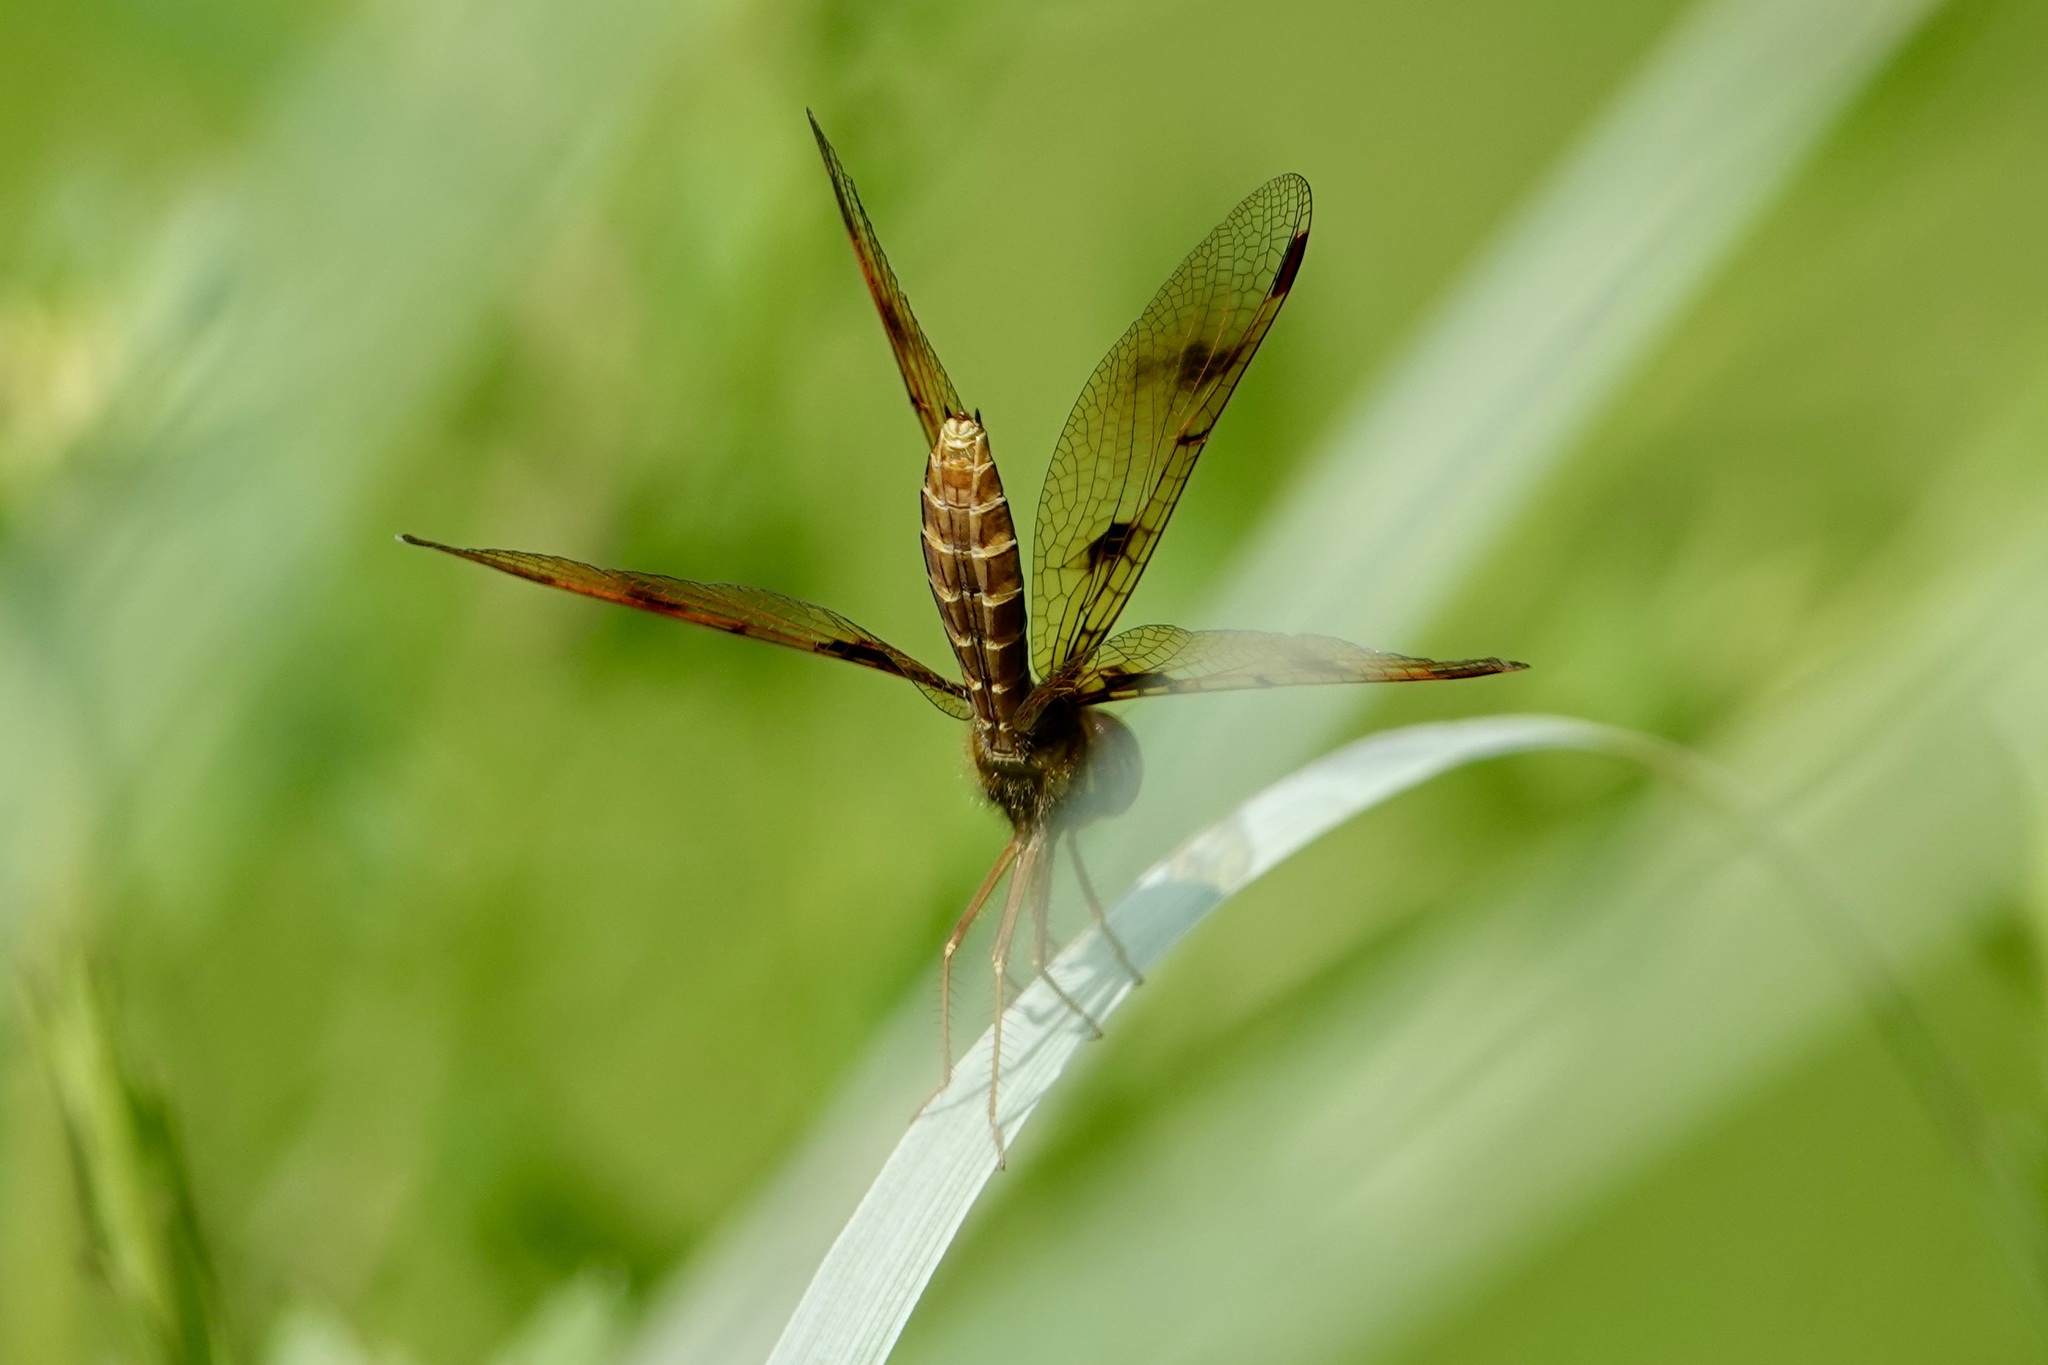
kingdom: Animalia
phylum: Arthropoda
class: Insecta
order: Odonata
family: Libellulidae
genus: Perithemis
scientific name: Perithemis tenera
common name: Eastern amberwing
